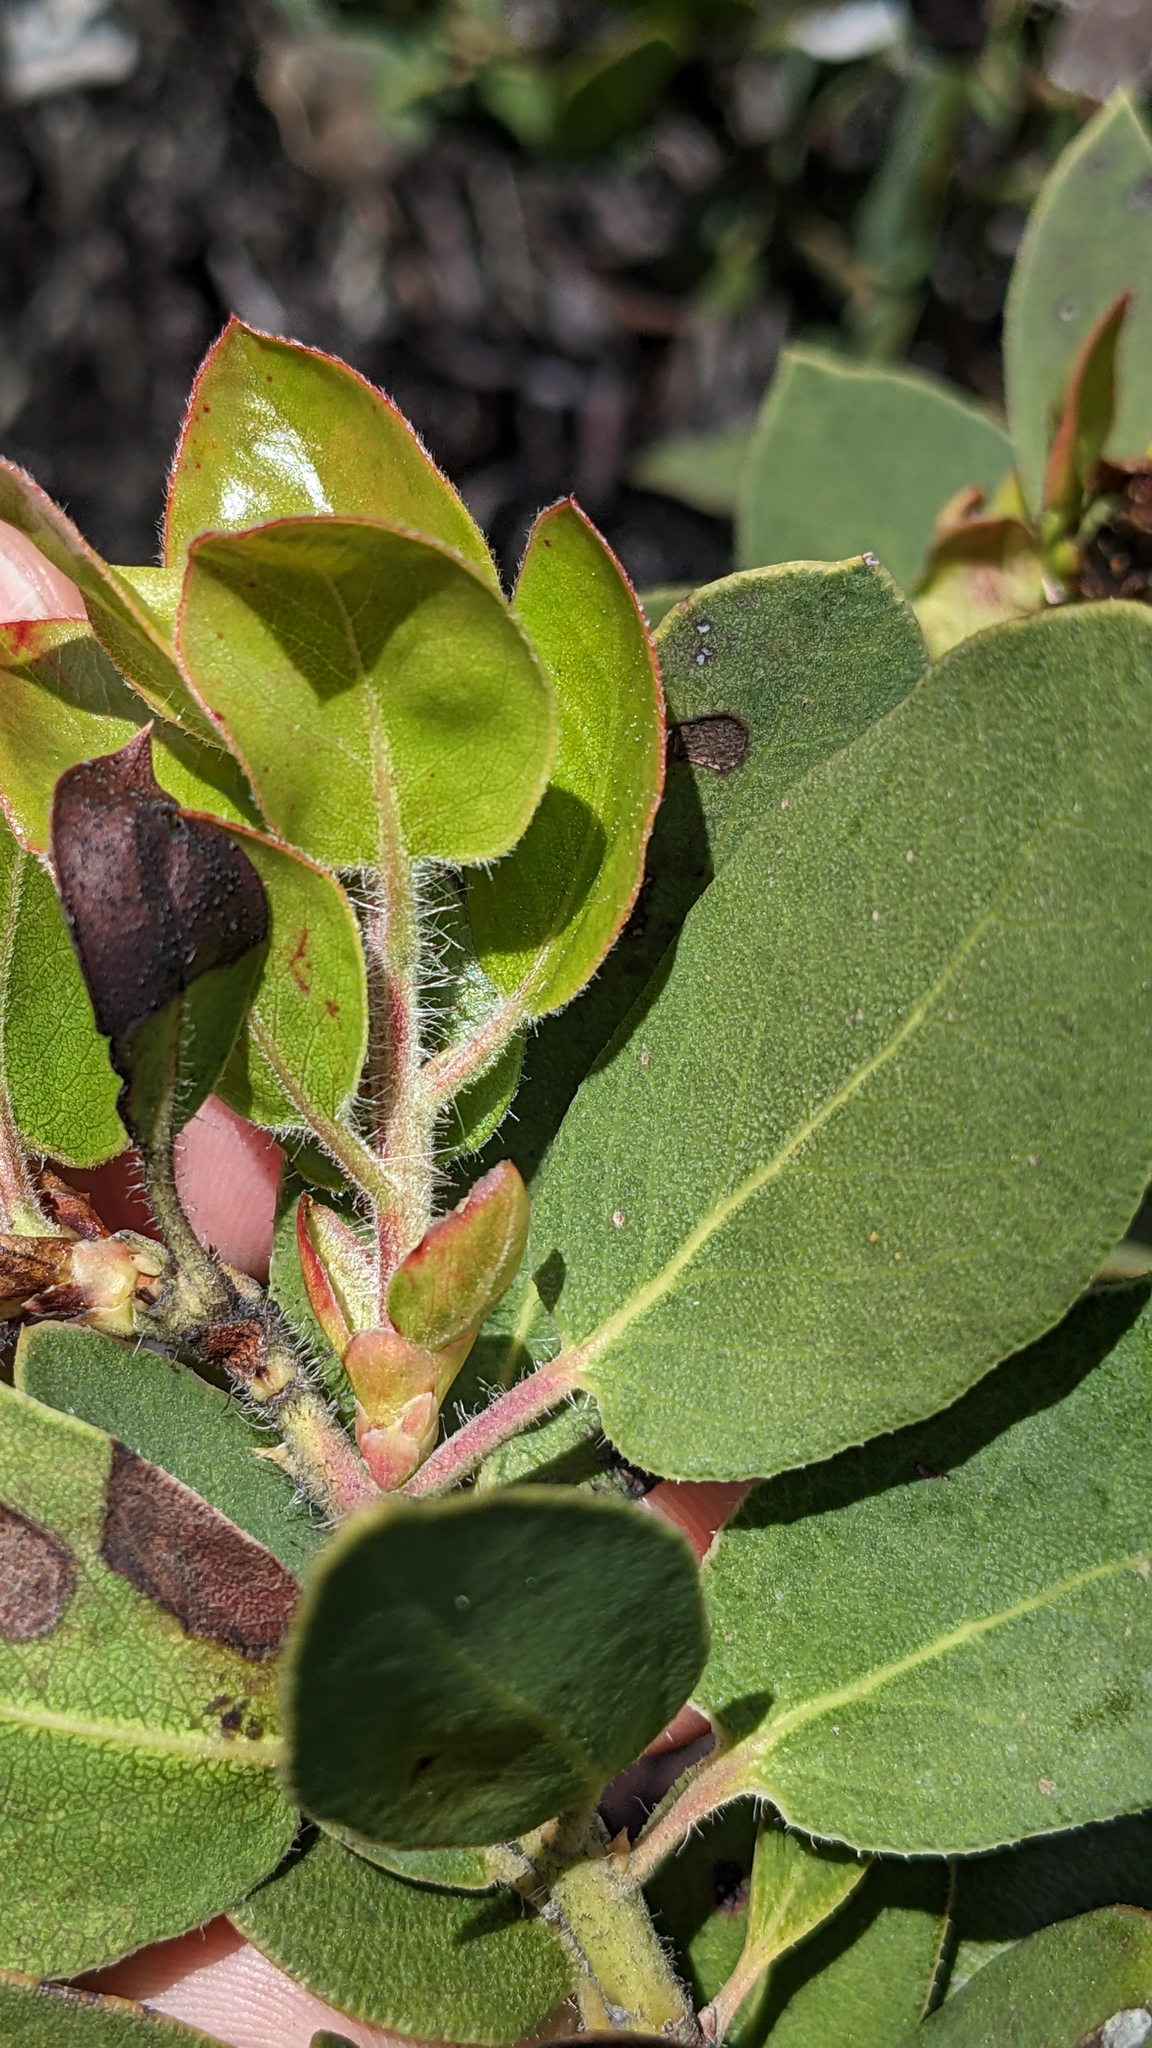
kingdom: Plantae
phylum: Tracheophyta
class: Magnoliopsida
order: Ericales
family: Ericaceae
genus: Arctostaphylos
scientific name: Arctostaphylos glandulosa
